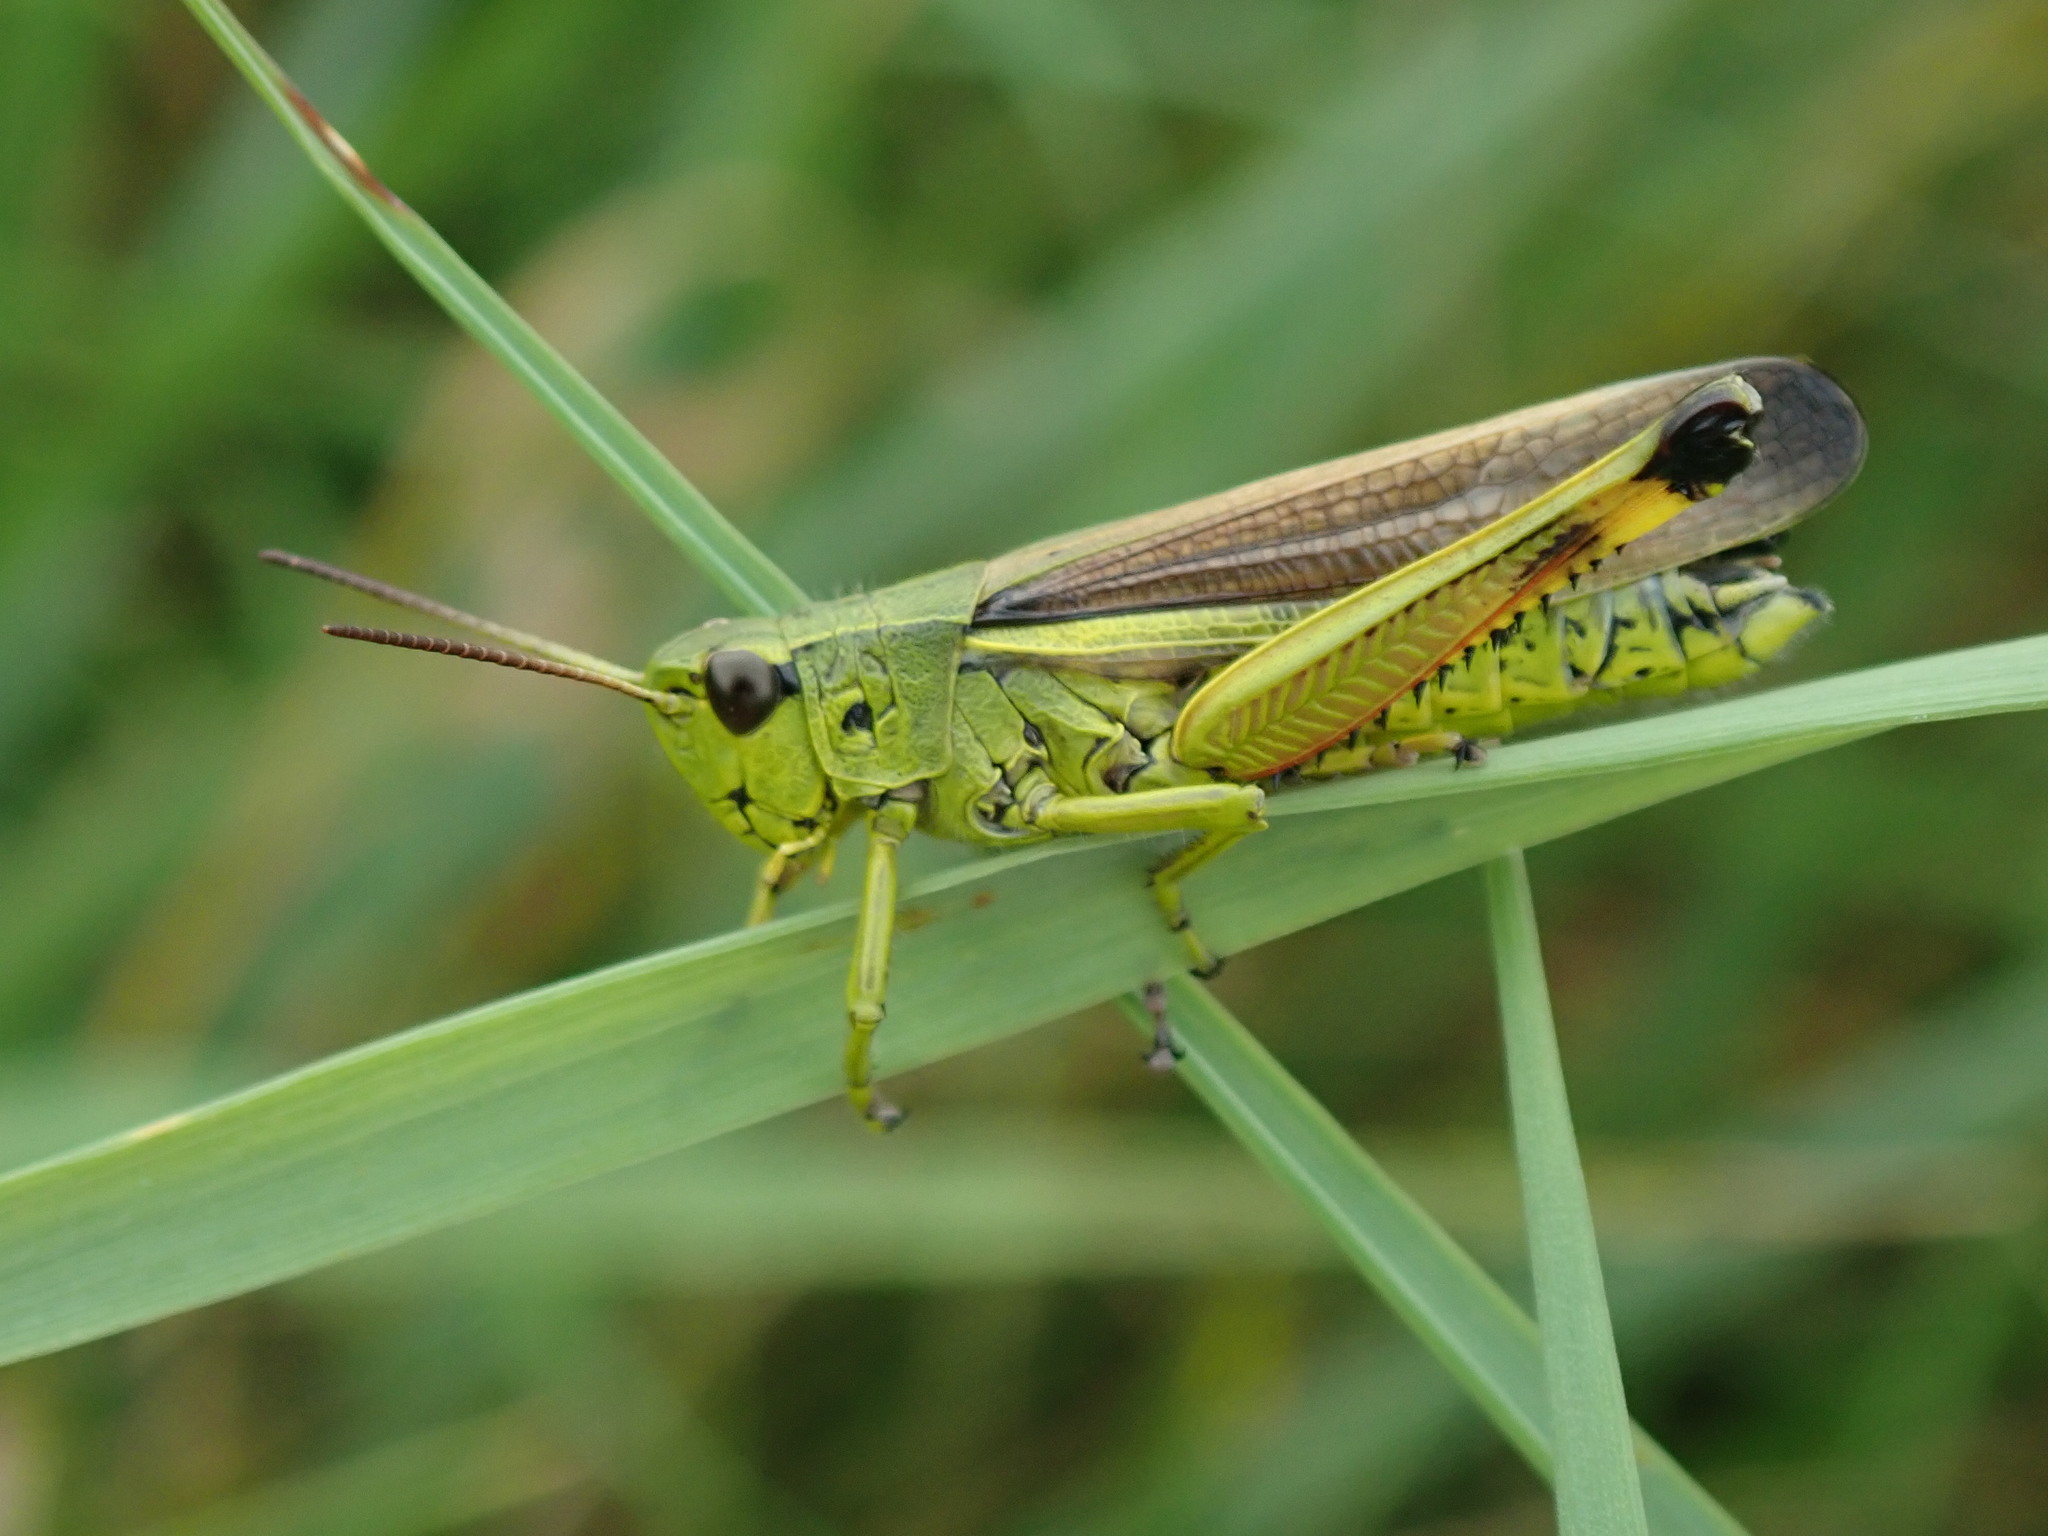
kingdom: Animalia
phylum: Arthropoda
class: Insecta
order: Orthoptera
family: Acrididae
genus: Stethophyma
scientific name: Stethophyma grossum
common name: Large marsh grasshopper
